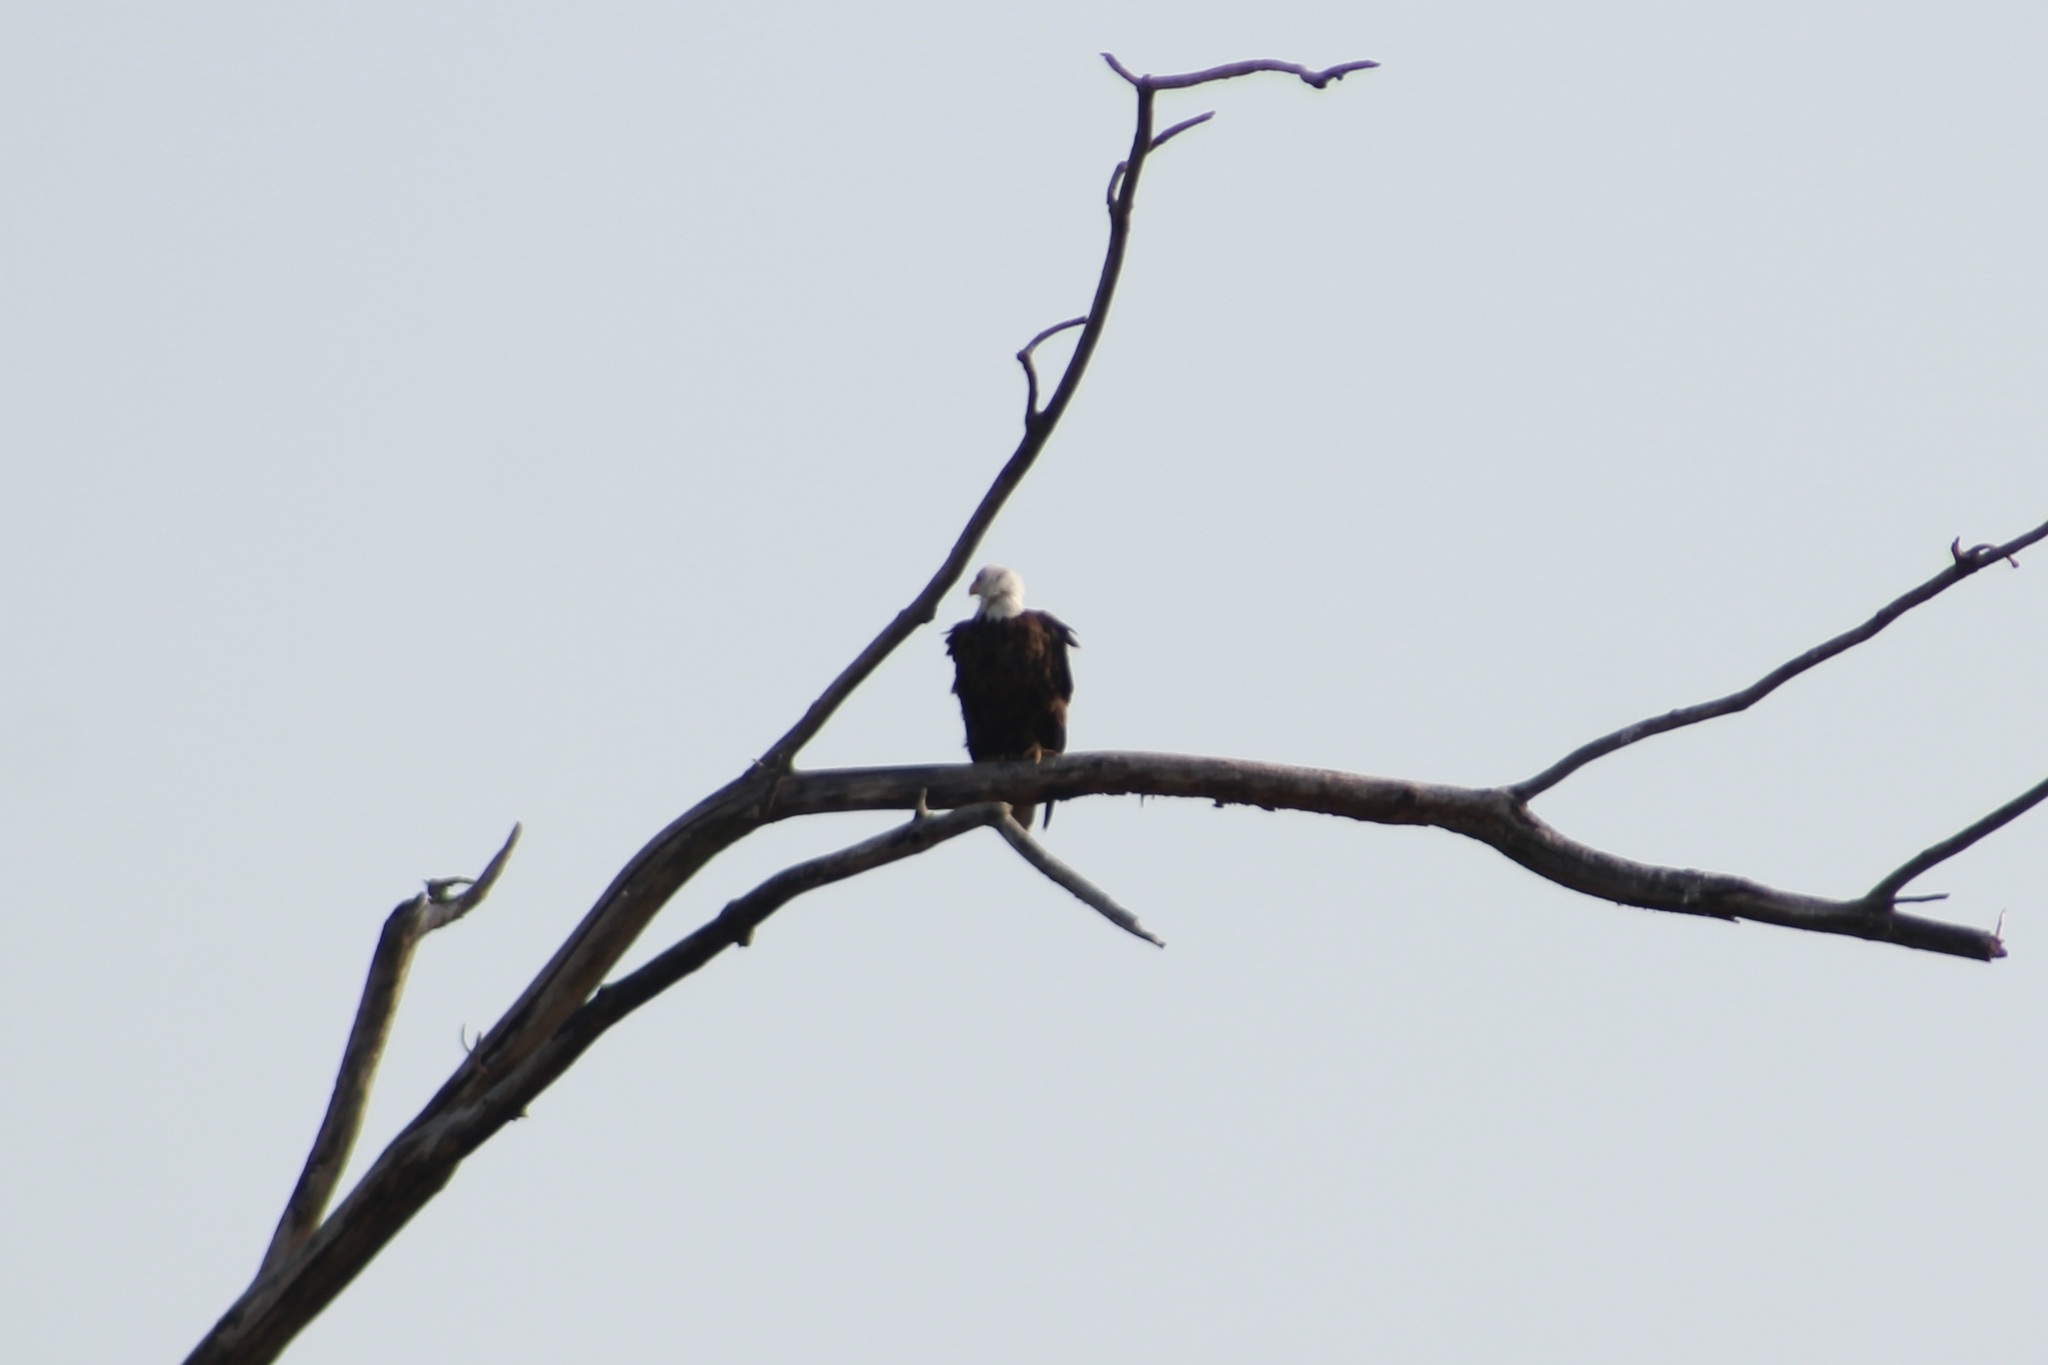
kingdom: Animalia
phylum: Chordata
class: Aves
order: Accipitriformes
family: Accipitridae
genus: Haliaeetus
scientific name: Haliaeetus leucocephalus
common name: Bald eagle
